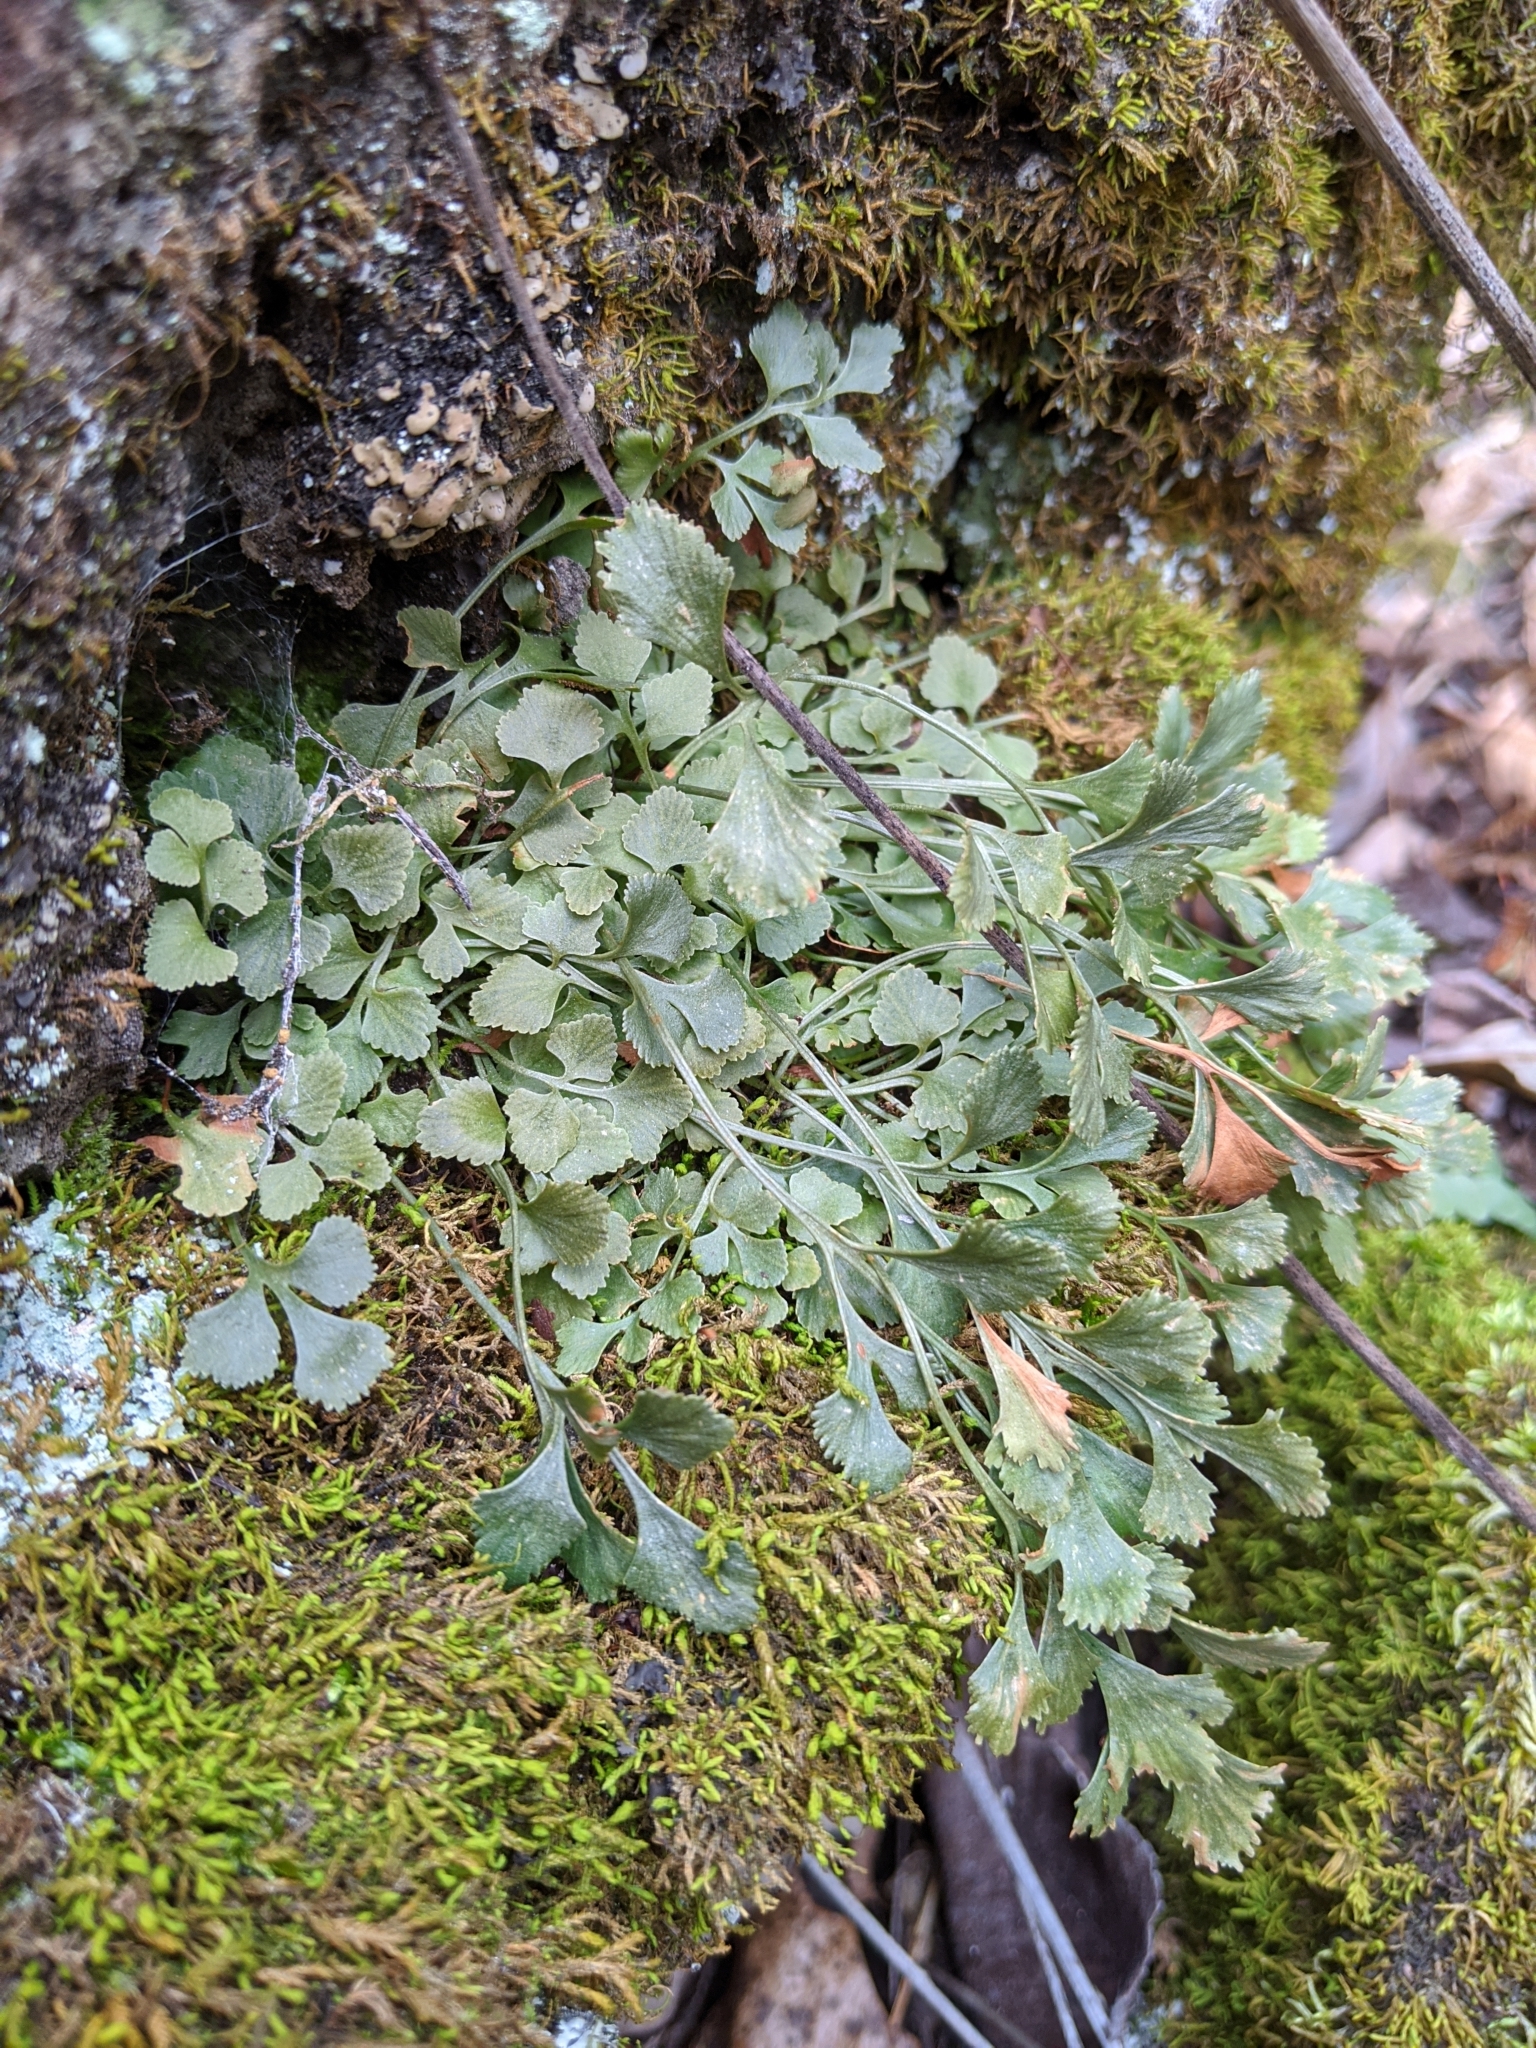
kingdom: Plantae
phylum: Tracheophyta
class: Polypodiopsida
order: Polypodiales
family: Aspleniaceae
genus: Asplenium
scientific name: Asplenium ruta-muraria
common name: Wall-rue
